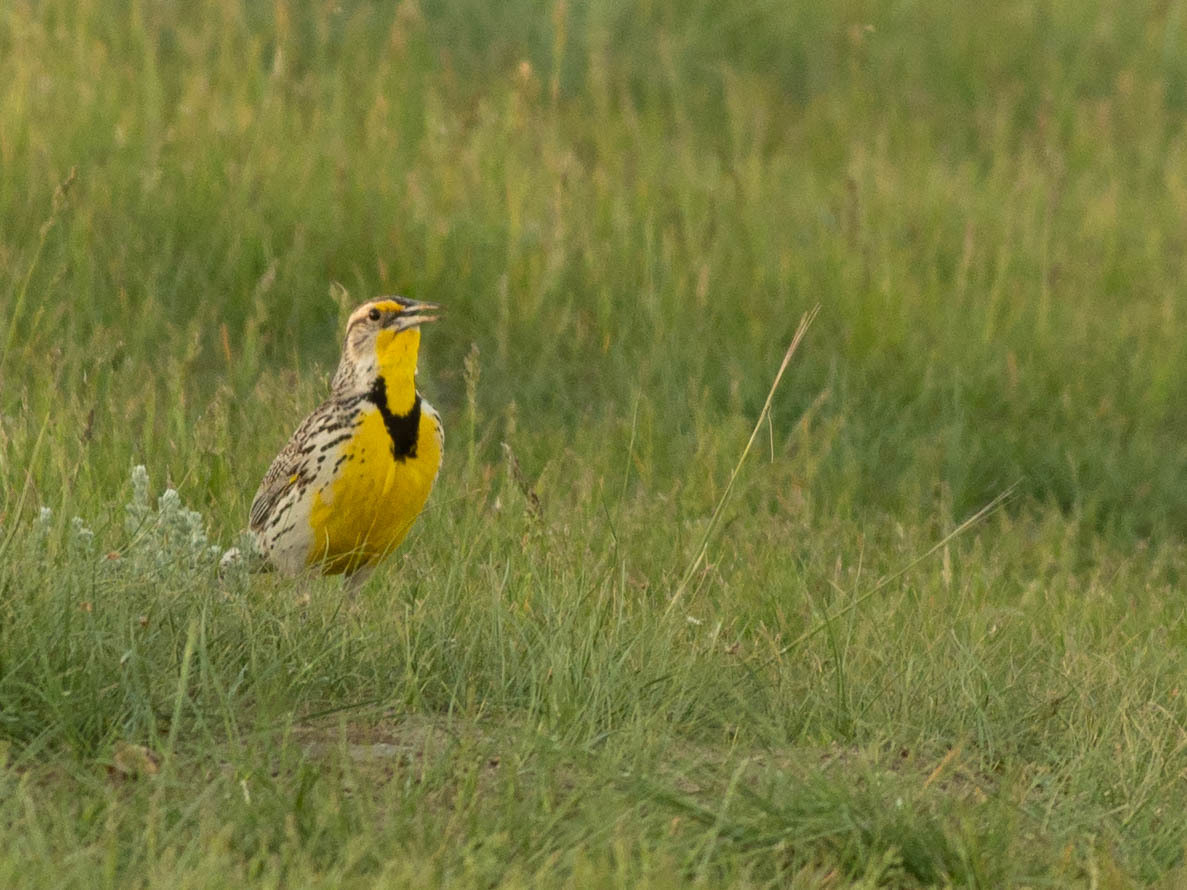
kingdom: Animalia
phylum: Chordata
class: Aves
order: Passeriformes
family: Icteridae
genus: Sturnella
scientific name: Sturnella neglecta
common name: Western meadowlark
